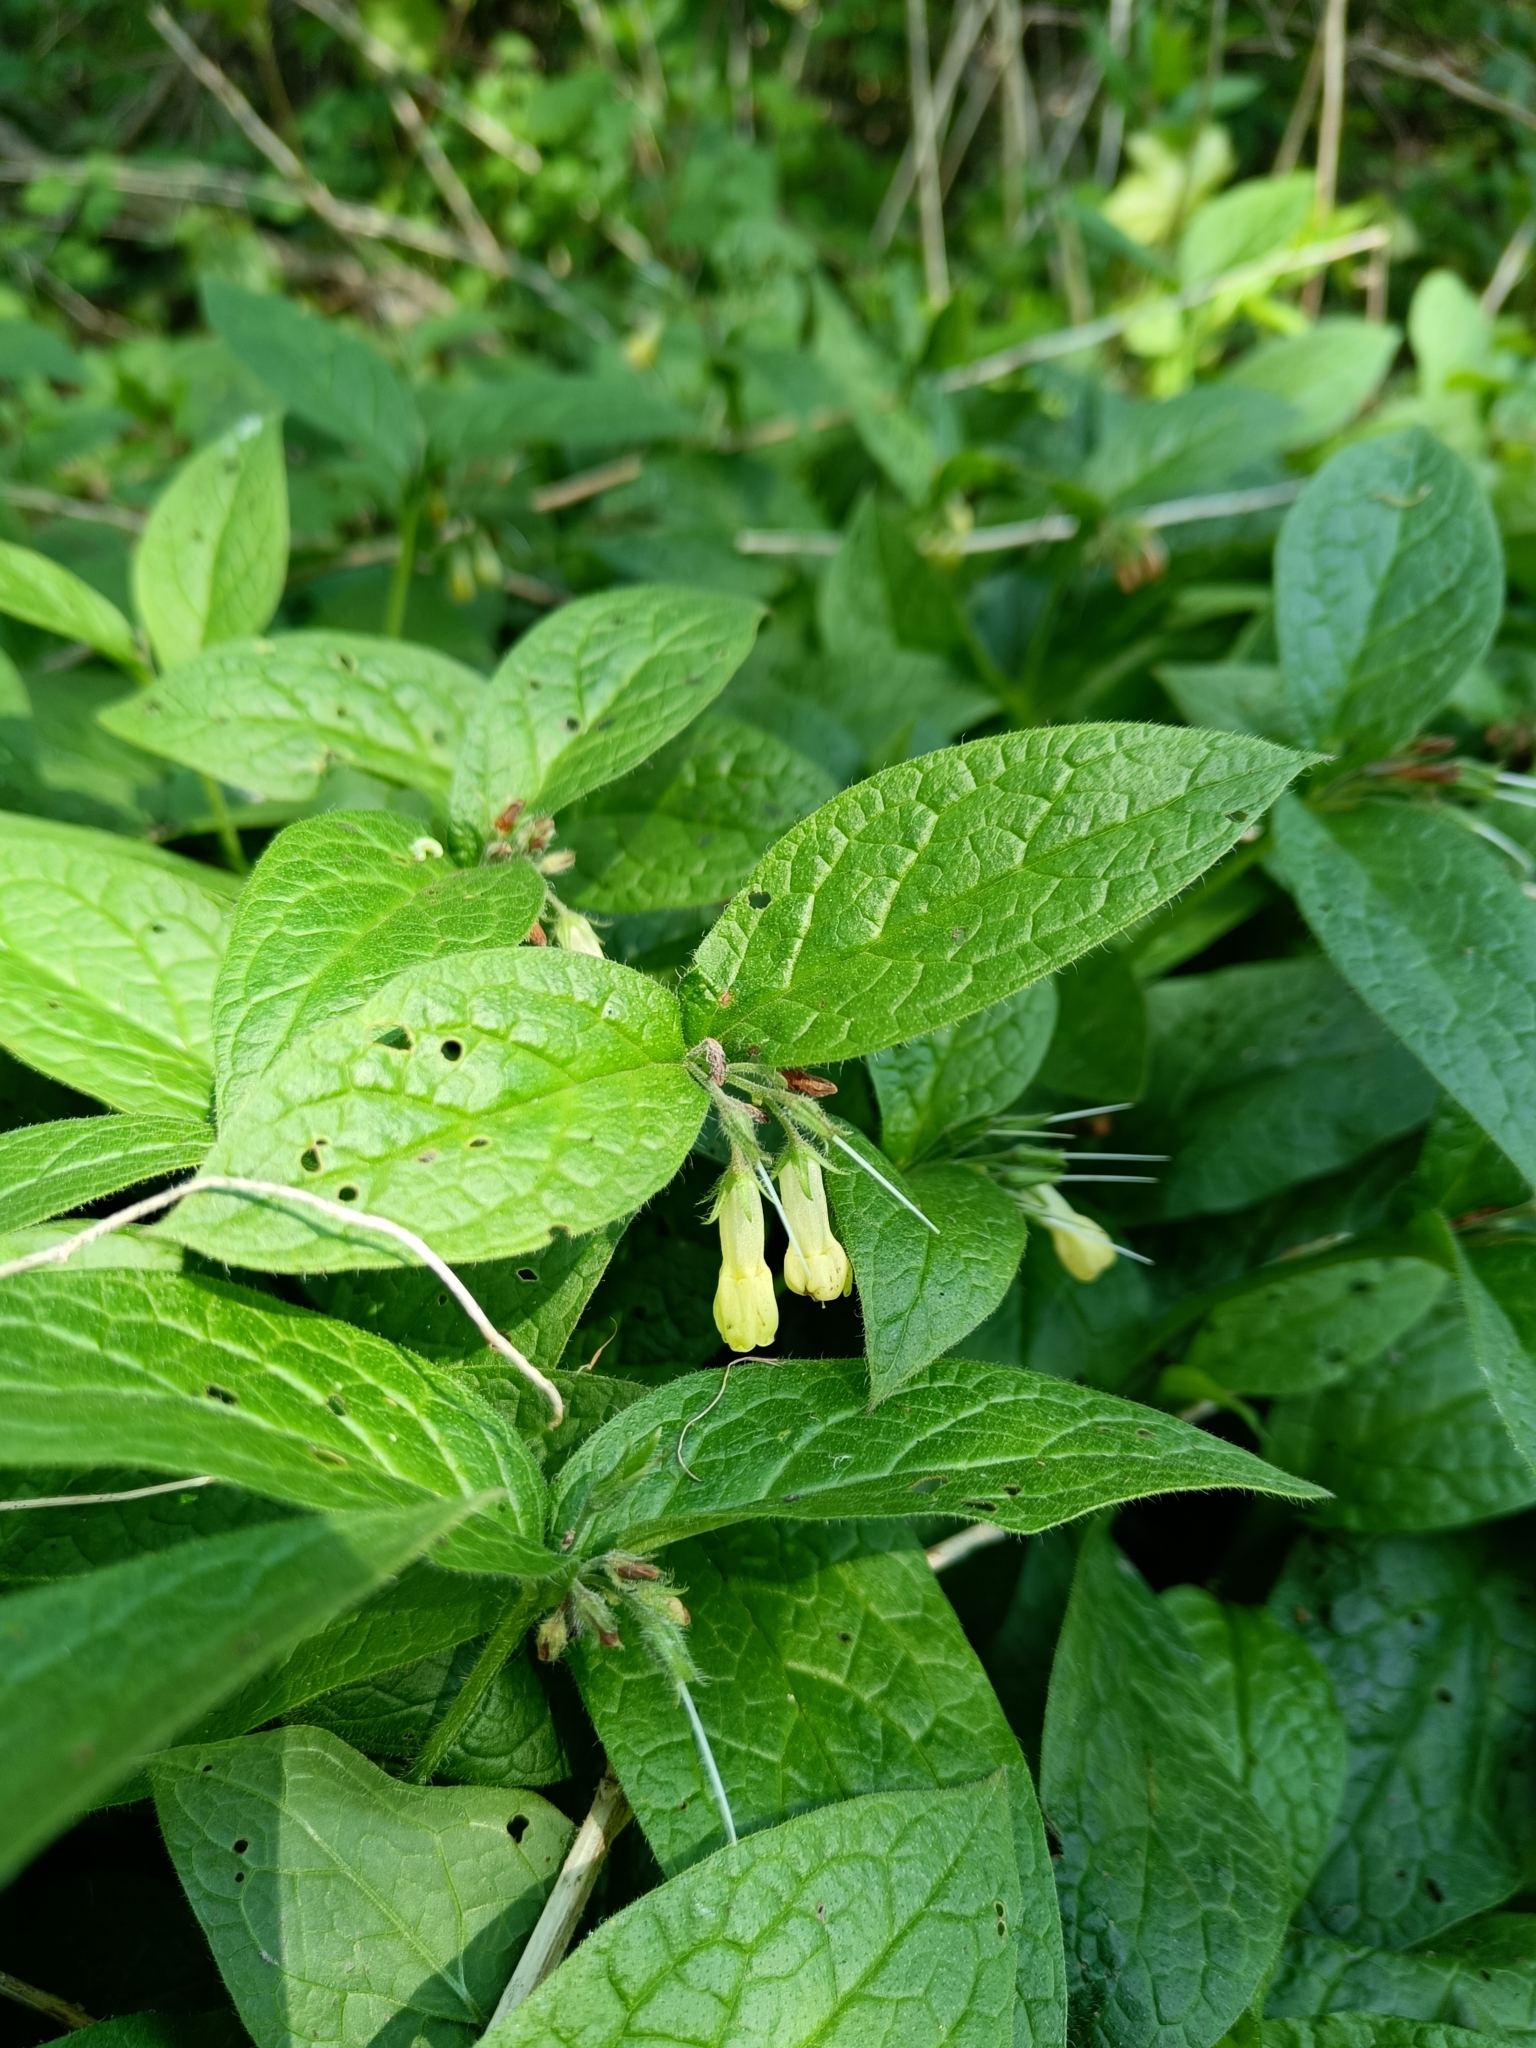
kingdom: Plantae
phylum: Tracheophyta
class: Magnoliopsida
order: Boraginales
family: Boraginaceae
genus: Symphytum
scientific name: Symphytum tuberosum
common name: Tuberous comfrey
